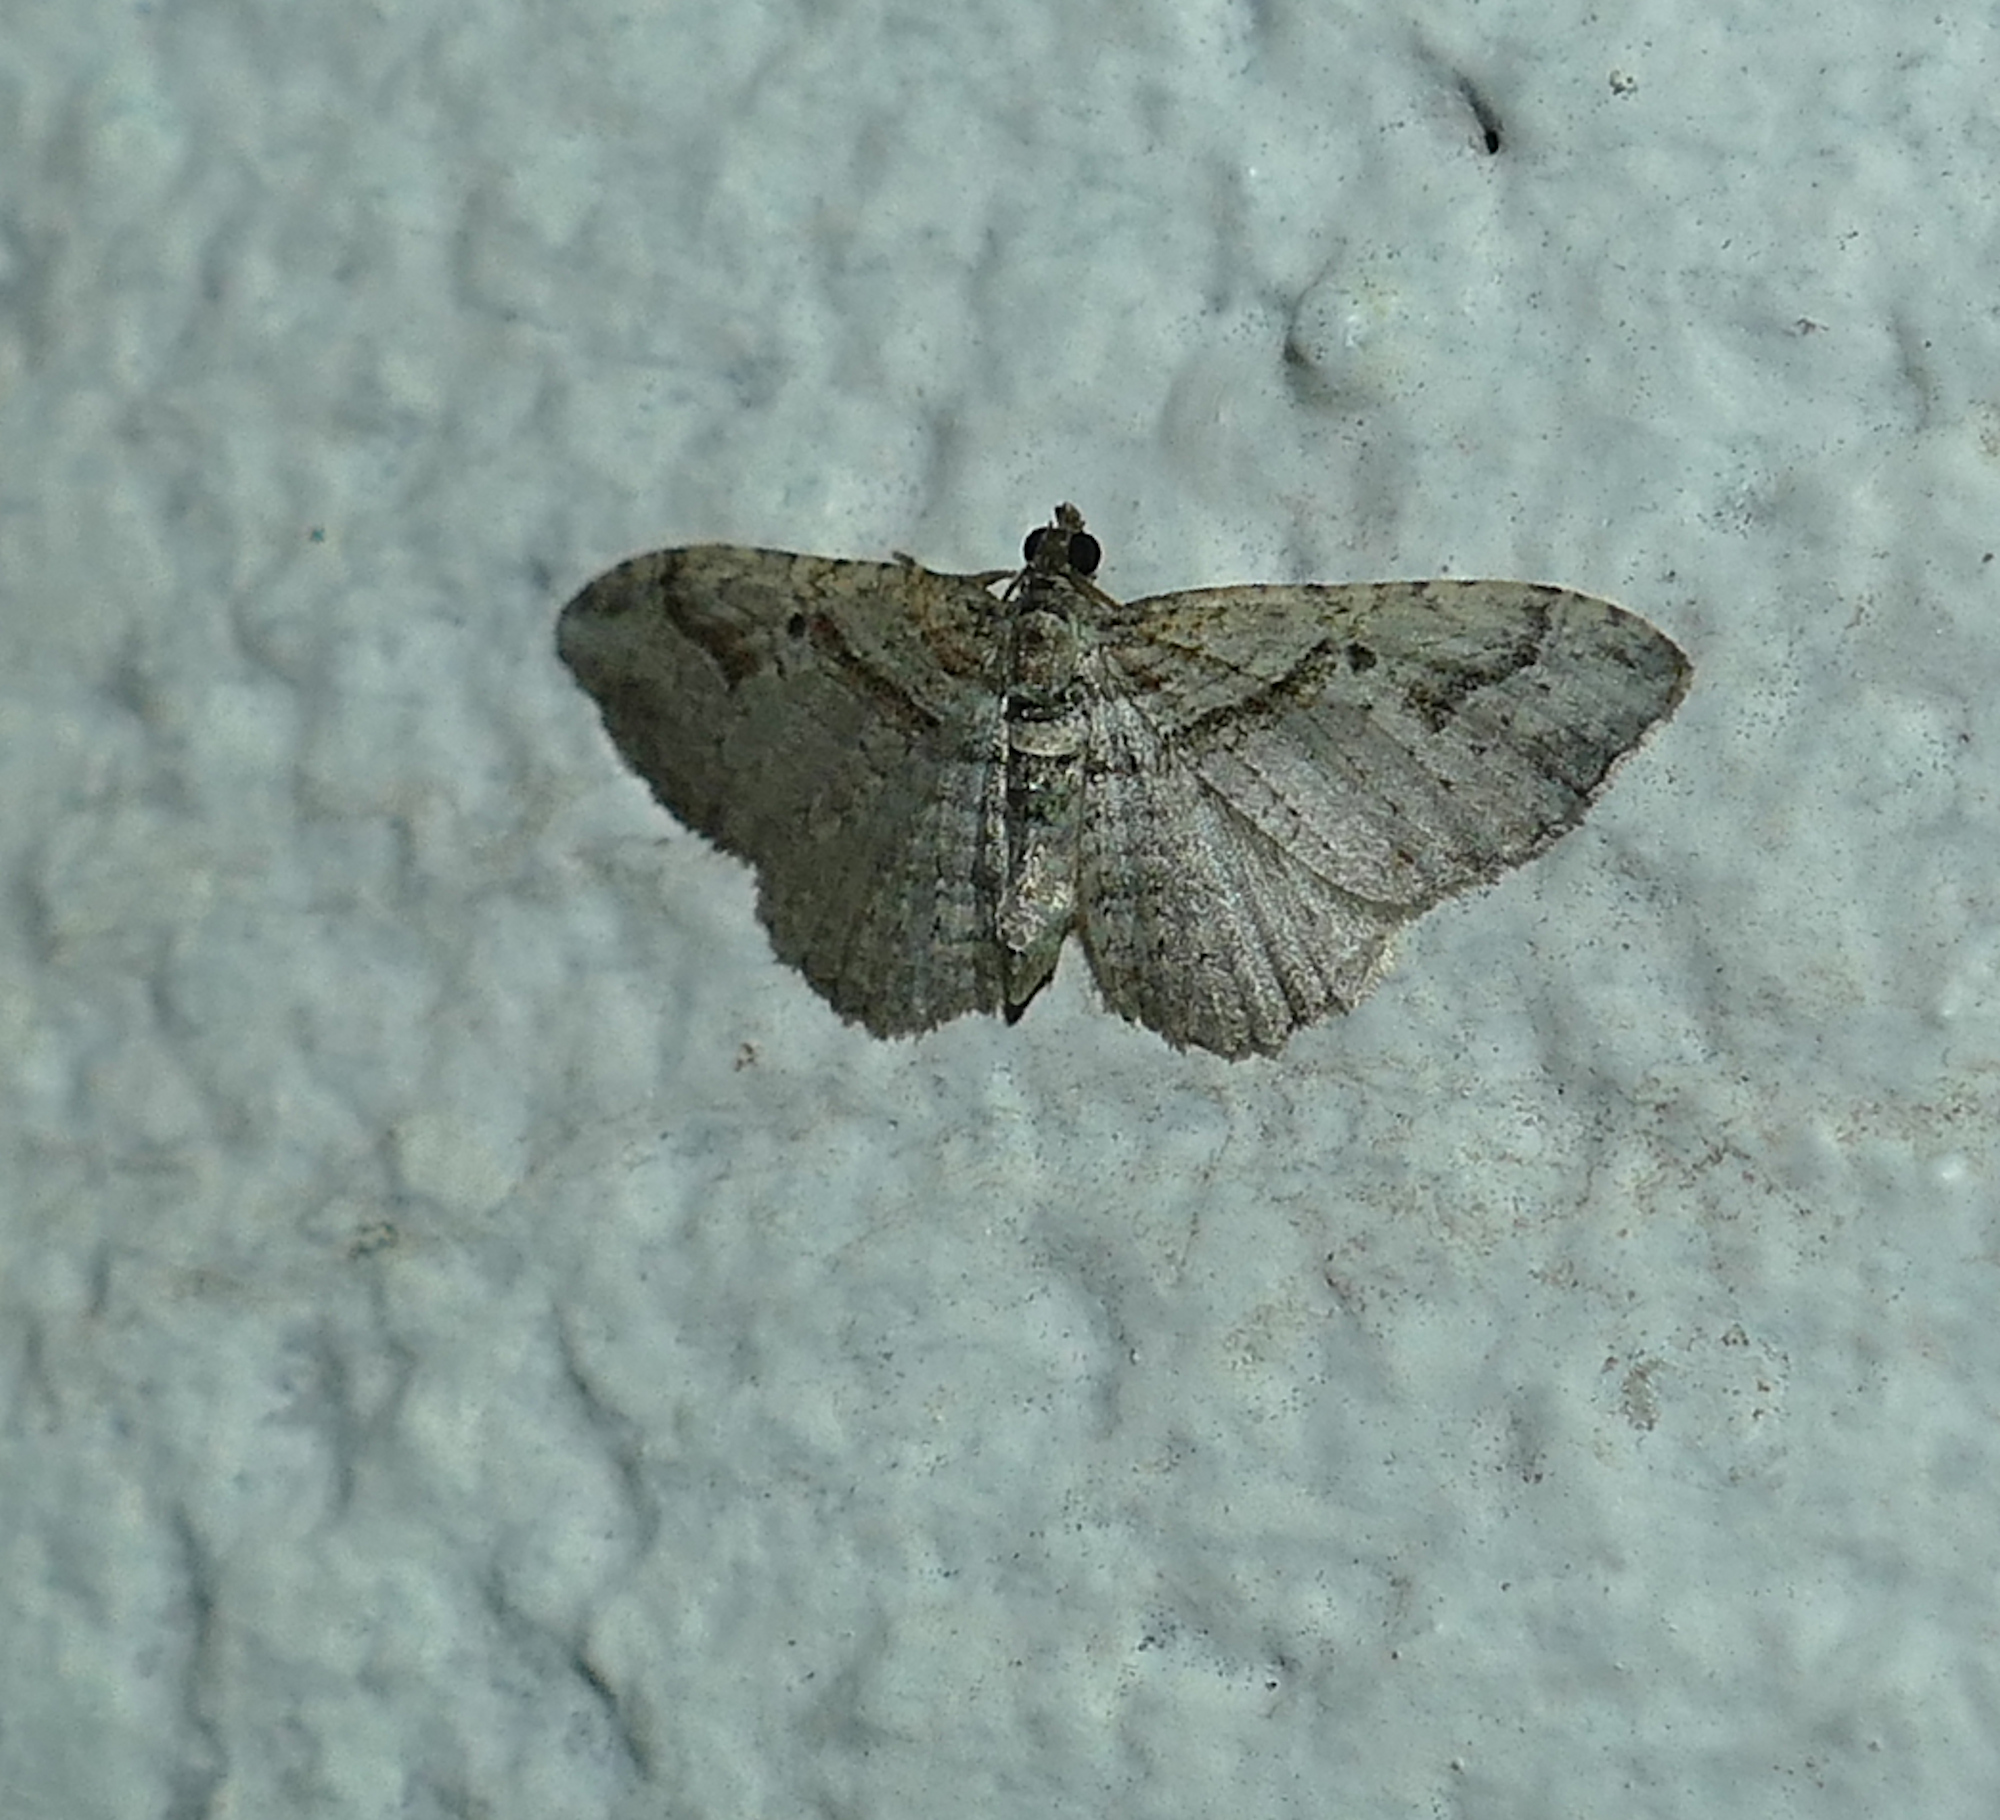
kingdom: Animalia
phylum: Arthropoda
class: Insecta
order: Lepidoptera
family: Geometridae
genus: Costaconvexa
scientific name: Costaconvexa centrostrigaria
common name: Bent-line carpet
